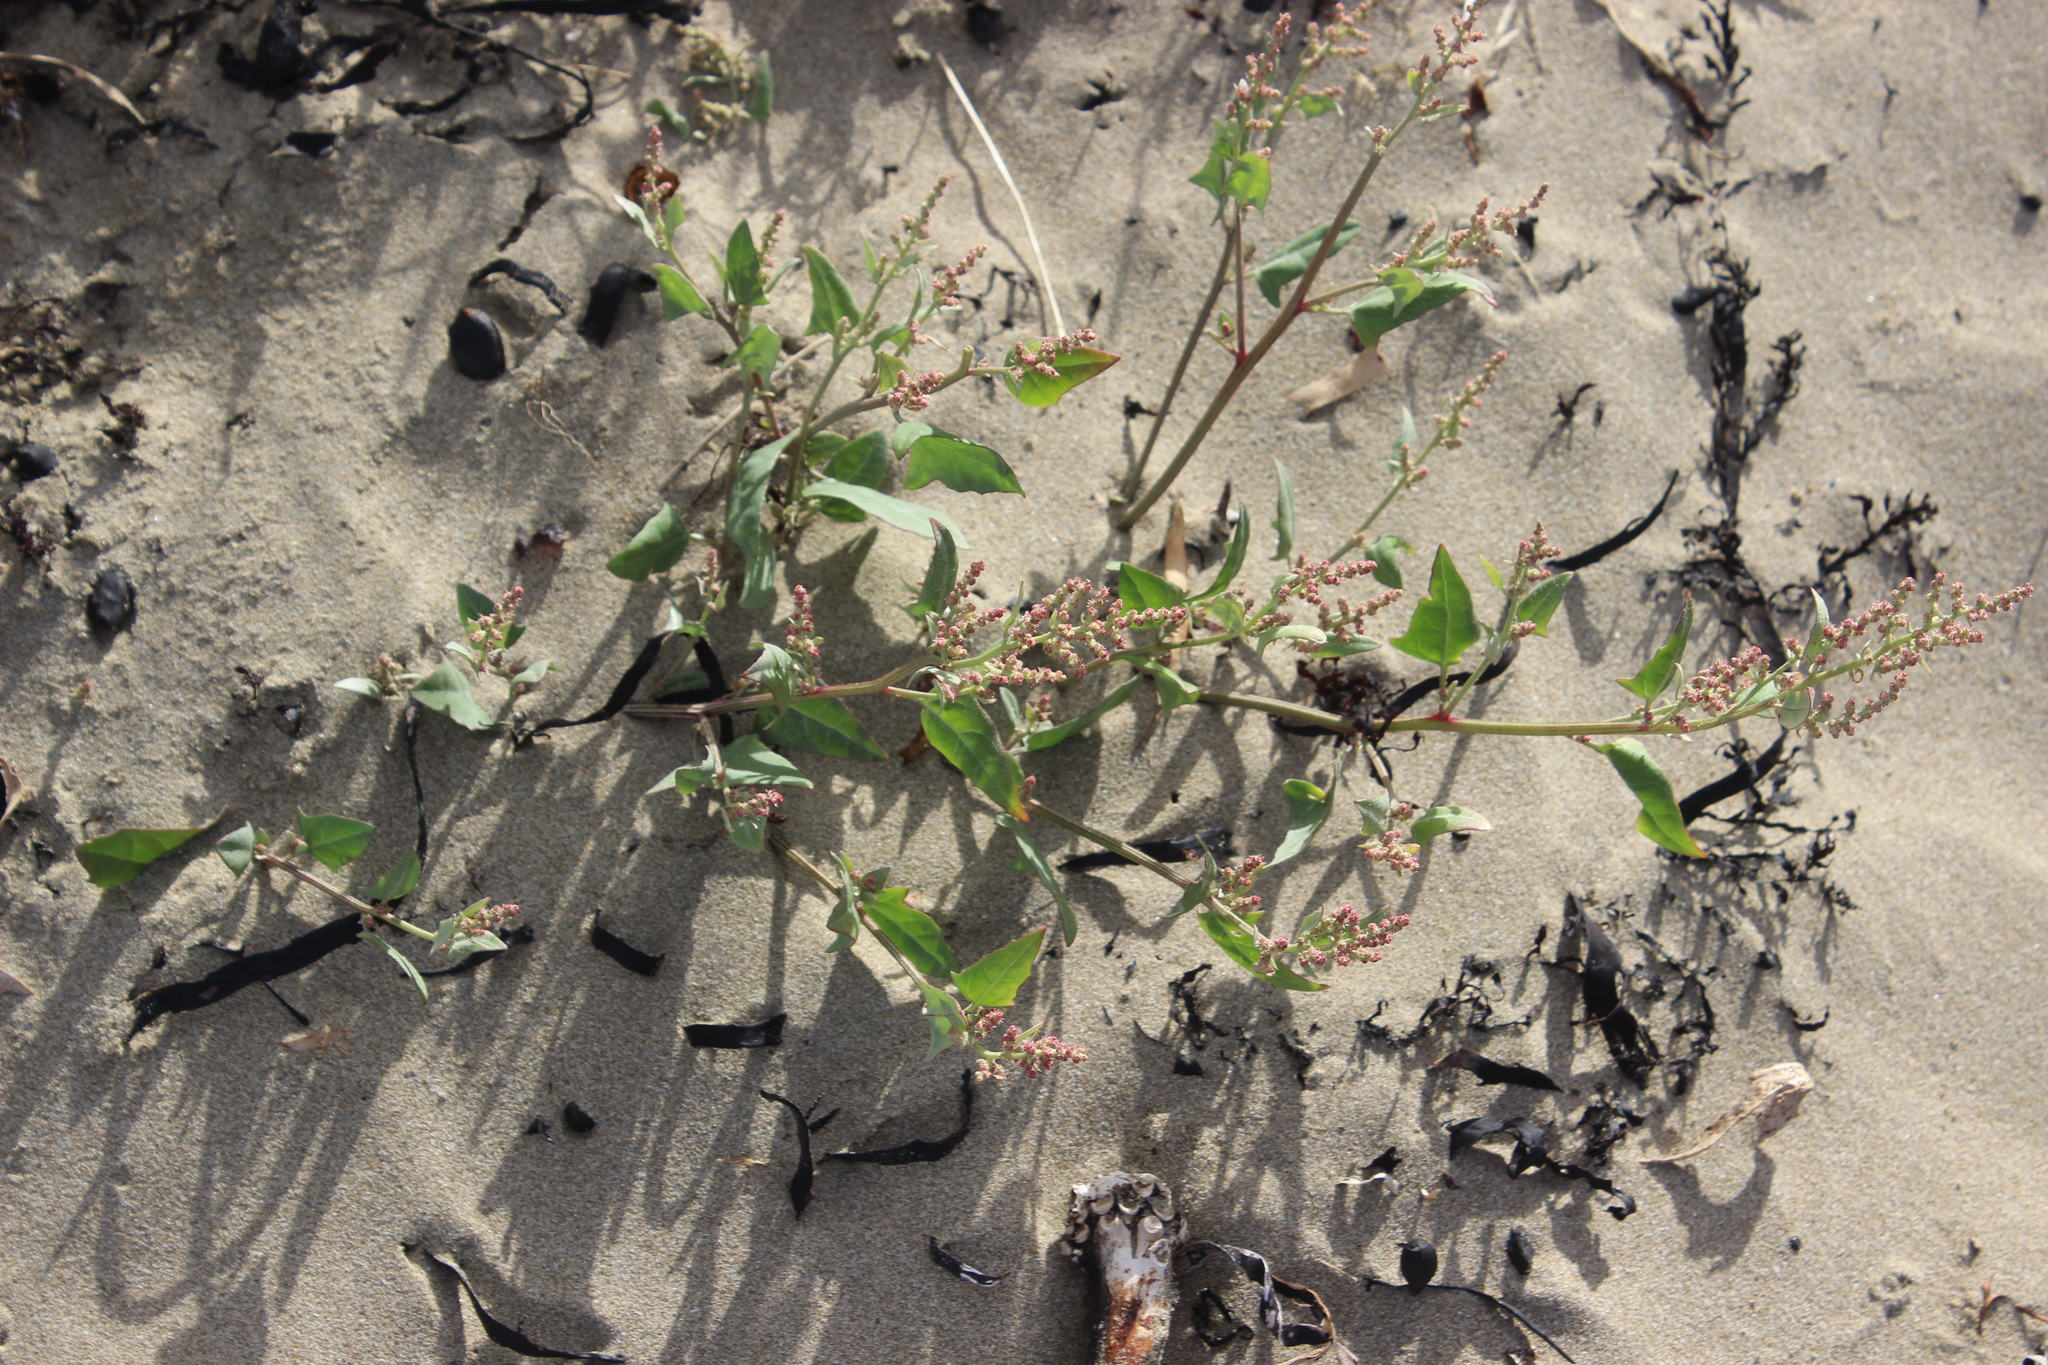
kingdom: Plantae
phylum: Tracheophyta
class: Magnoliopsida
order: Caryophyllales
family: Amaranthaceae
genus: Atriplex
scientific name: Atriplex prostrata
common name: Spear-leaved orache
